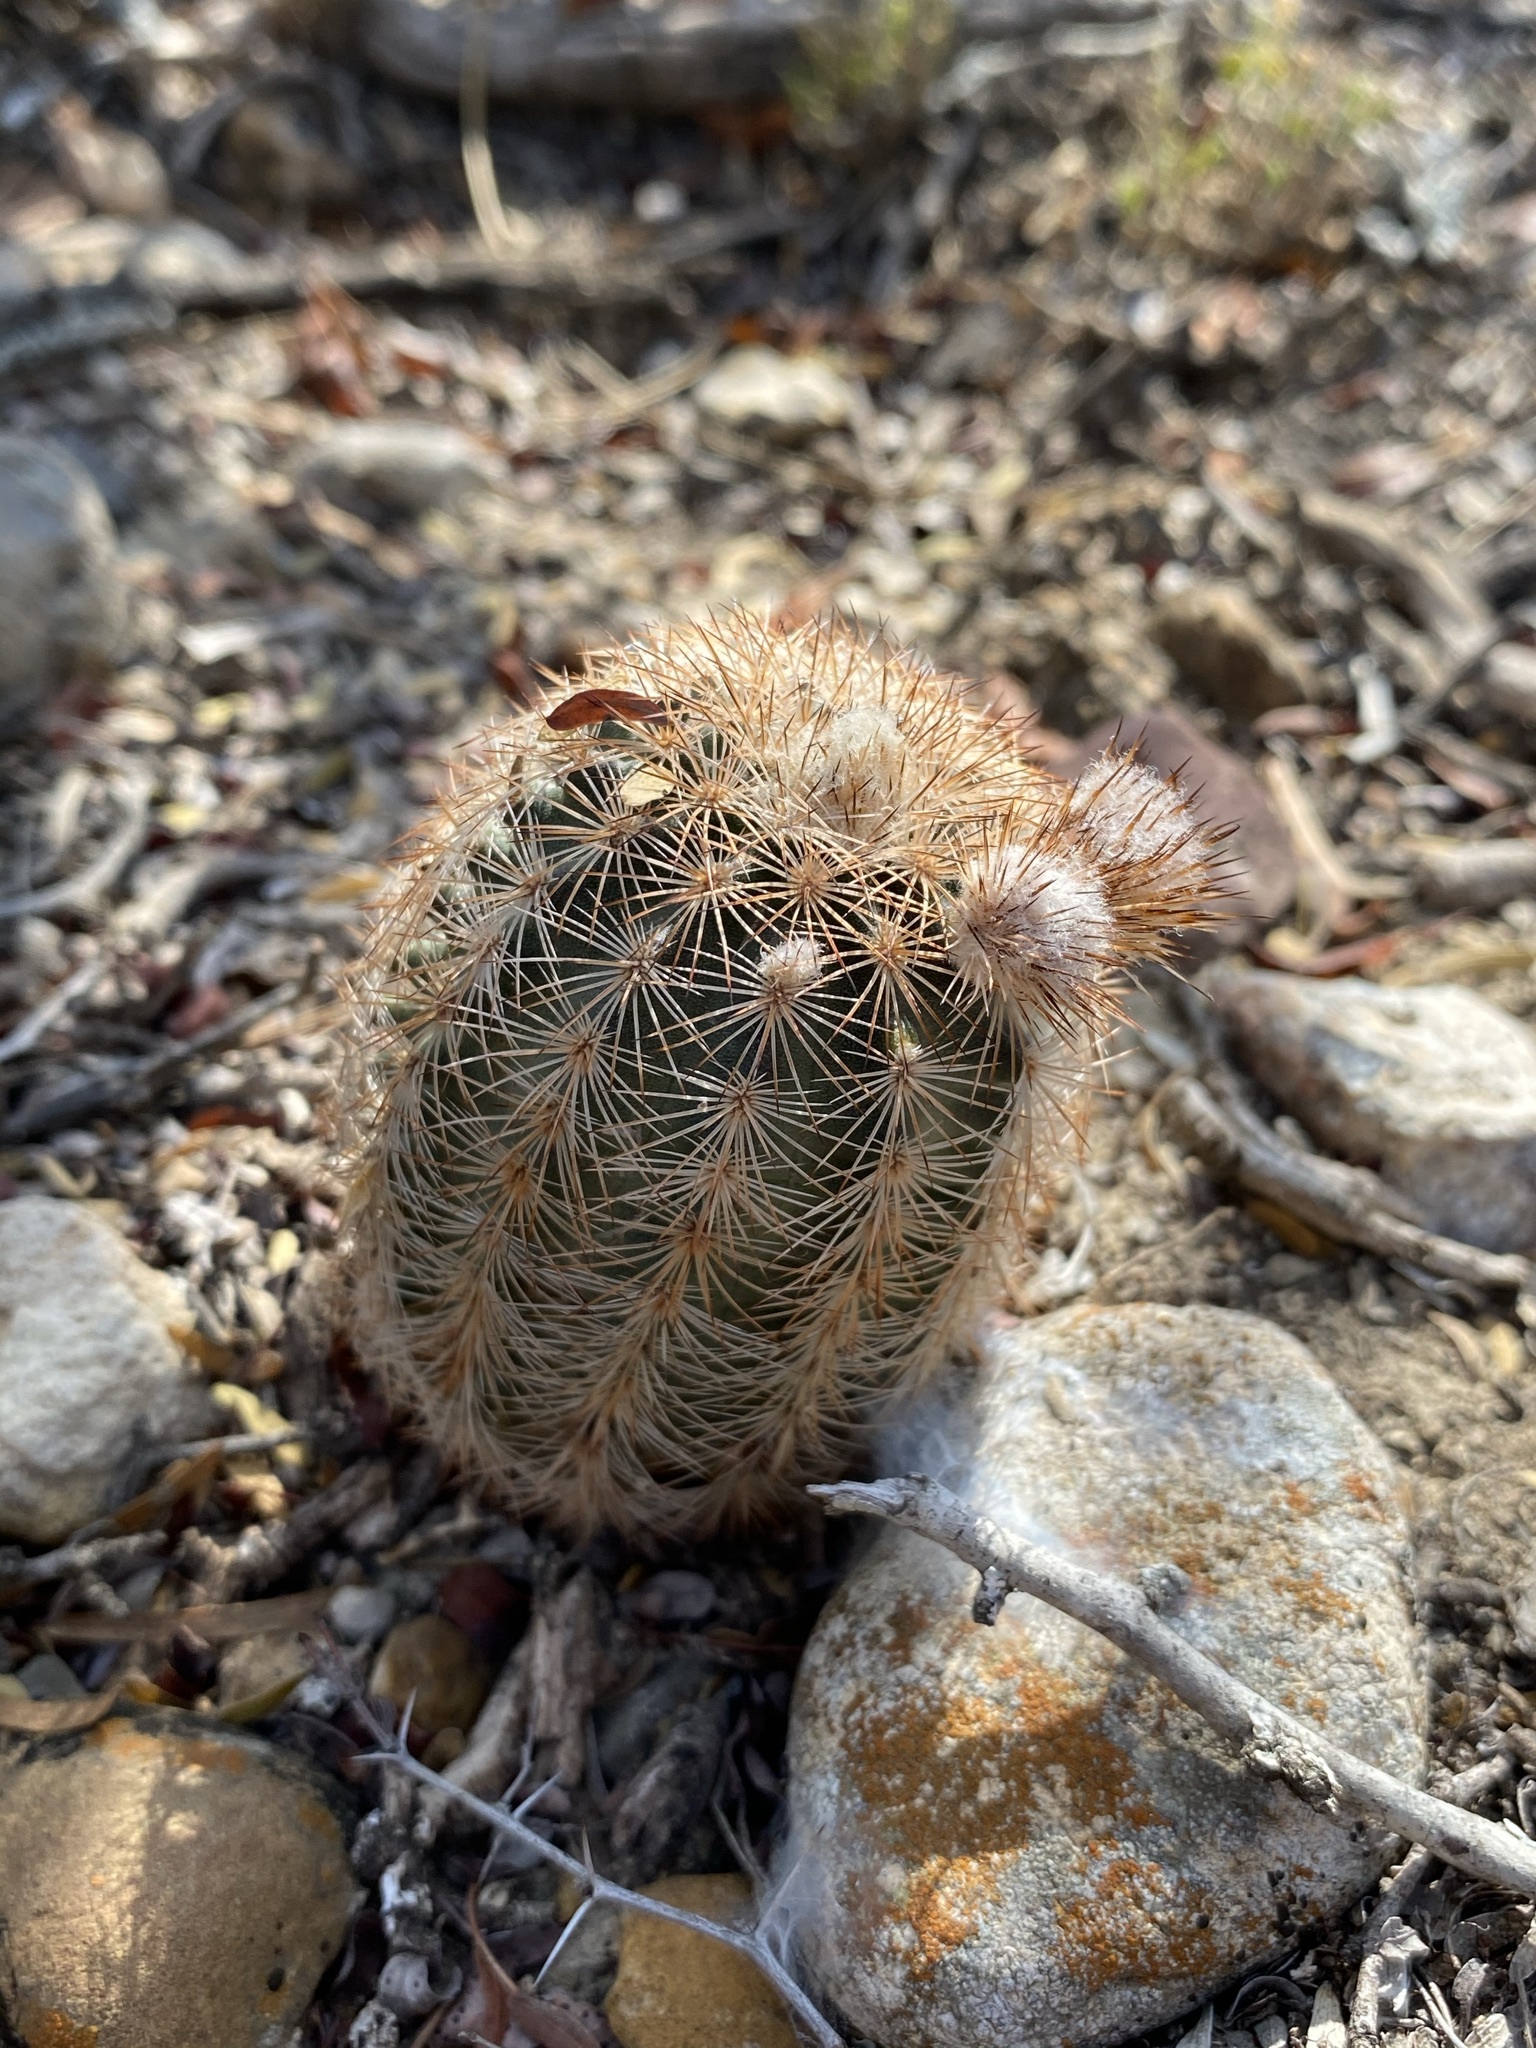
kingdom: Plantae
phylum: Tracheophyta
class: Magnoliopsida
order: Caryophyllales
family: Cactaceae
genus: Echinocereus
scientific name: Echinocereus reichenbachii
